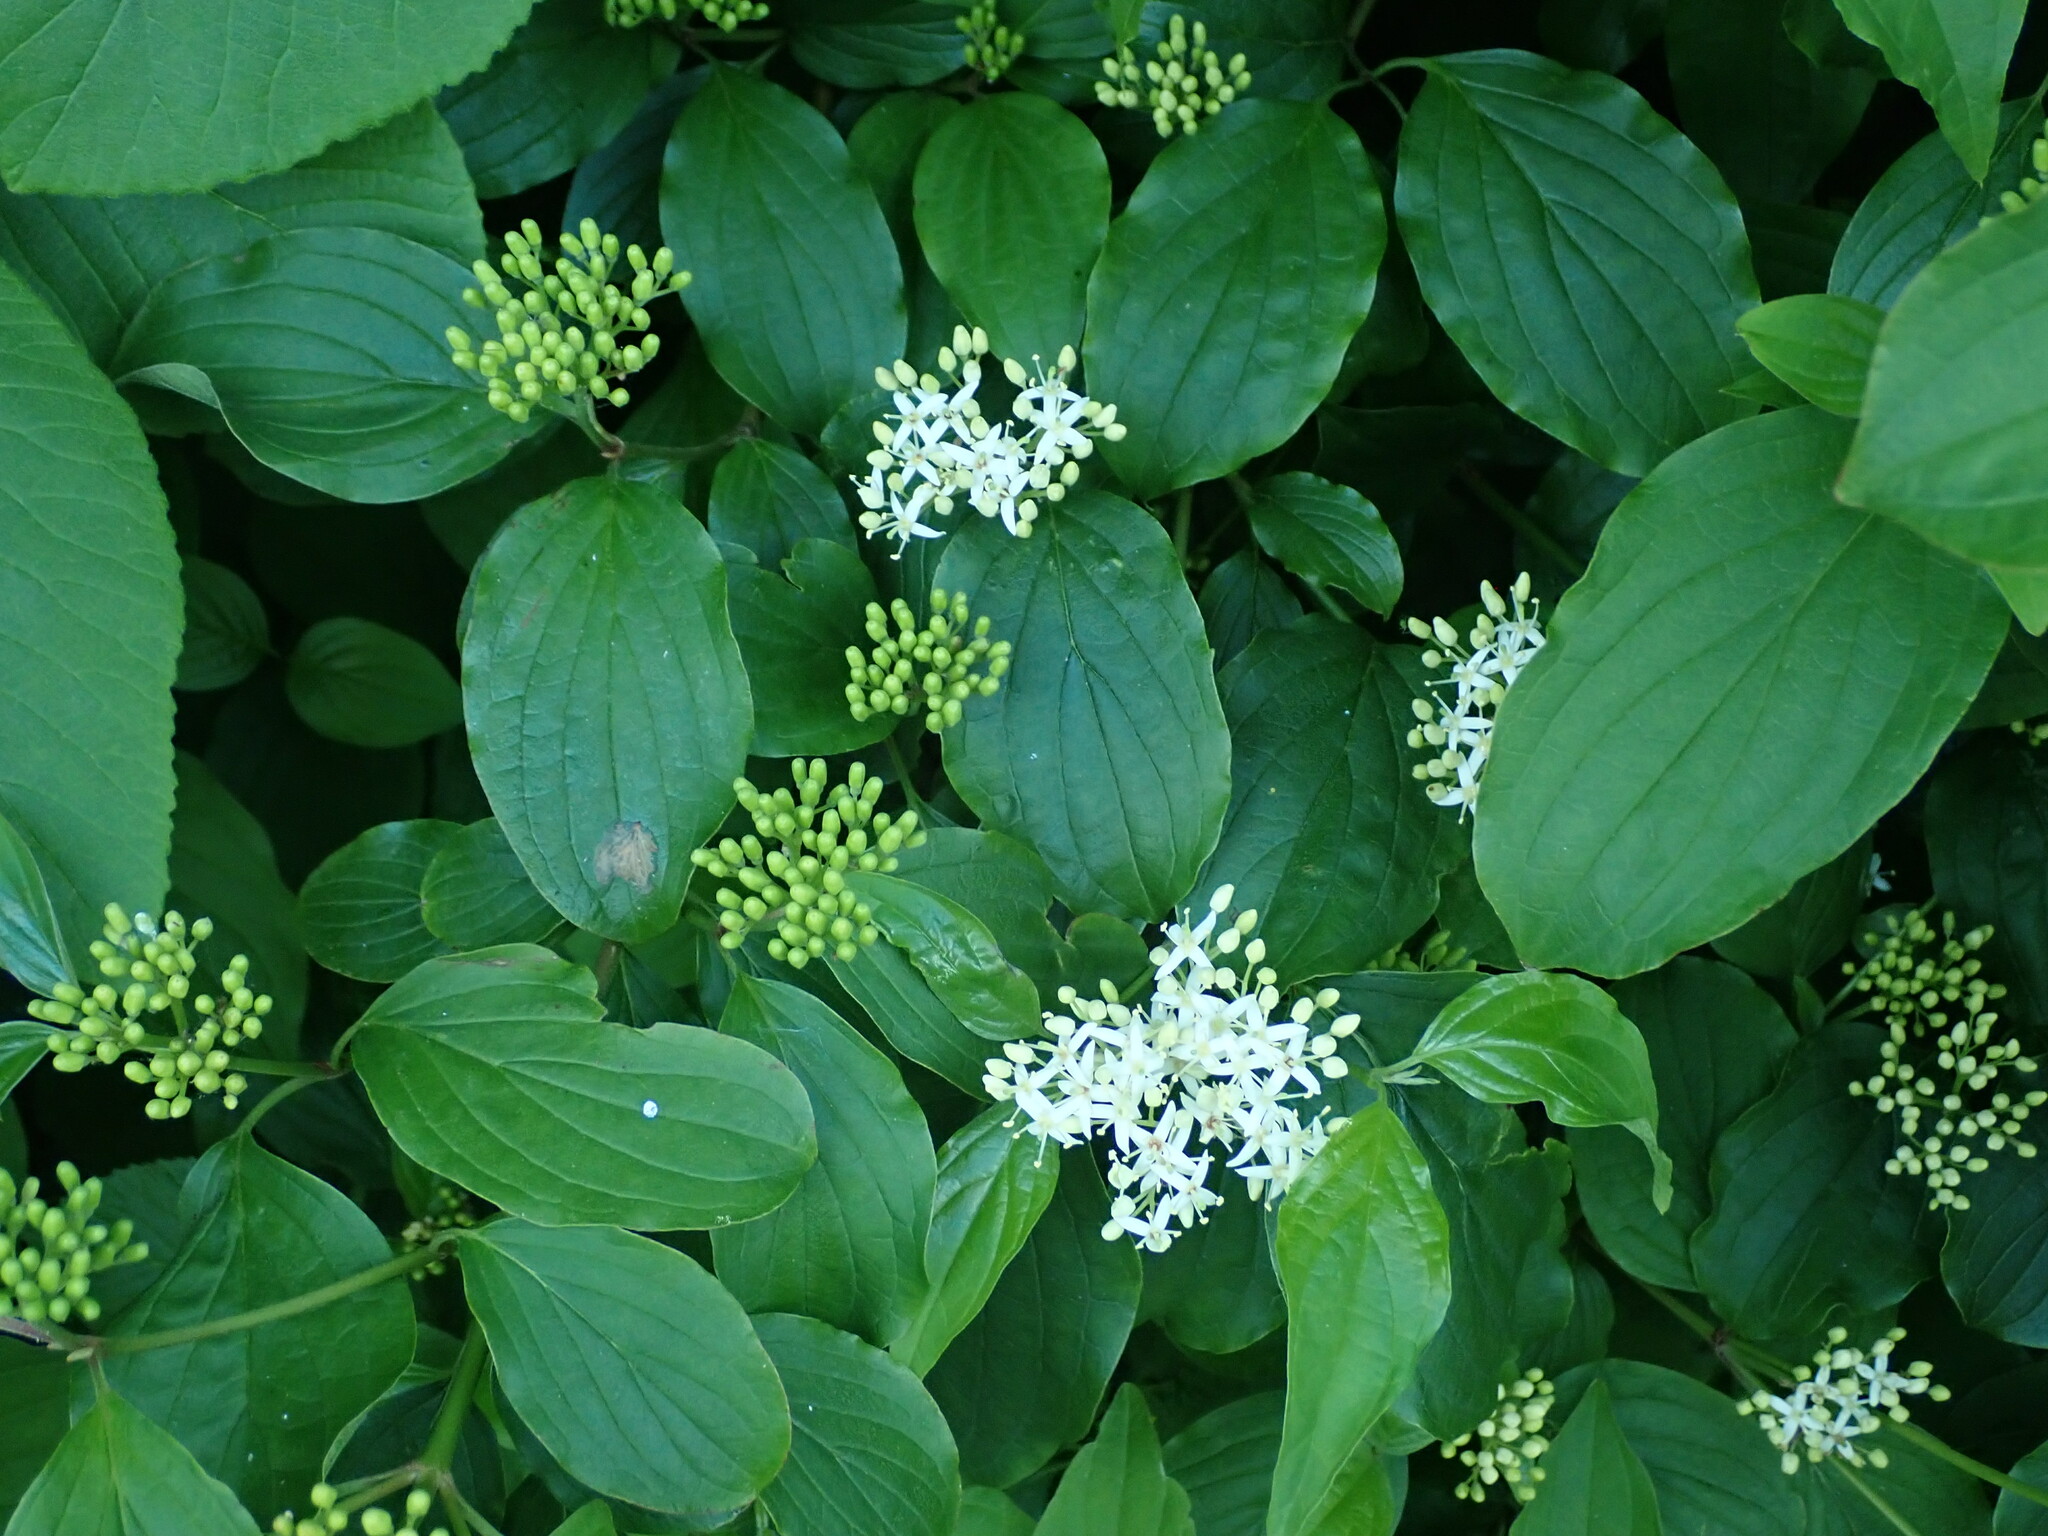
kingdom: Plantae
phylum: Tracheophyta
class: Magnoliopsida
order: Cornales
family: Cornaceae
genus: Cornus
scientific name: Cornus sanguinea
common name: Dogwood
